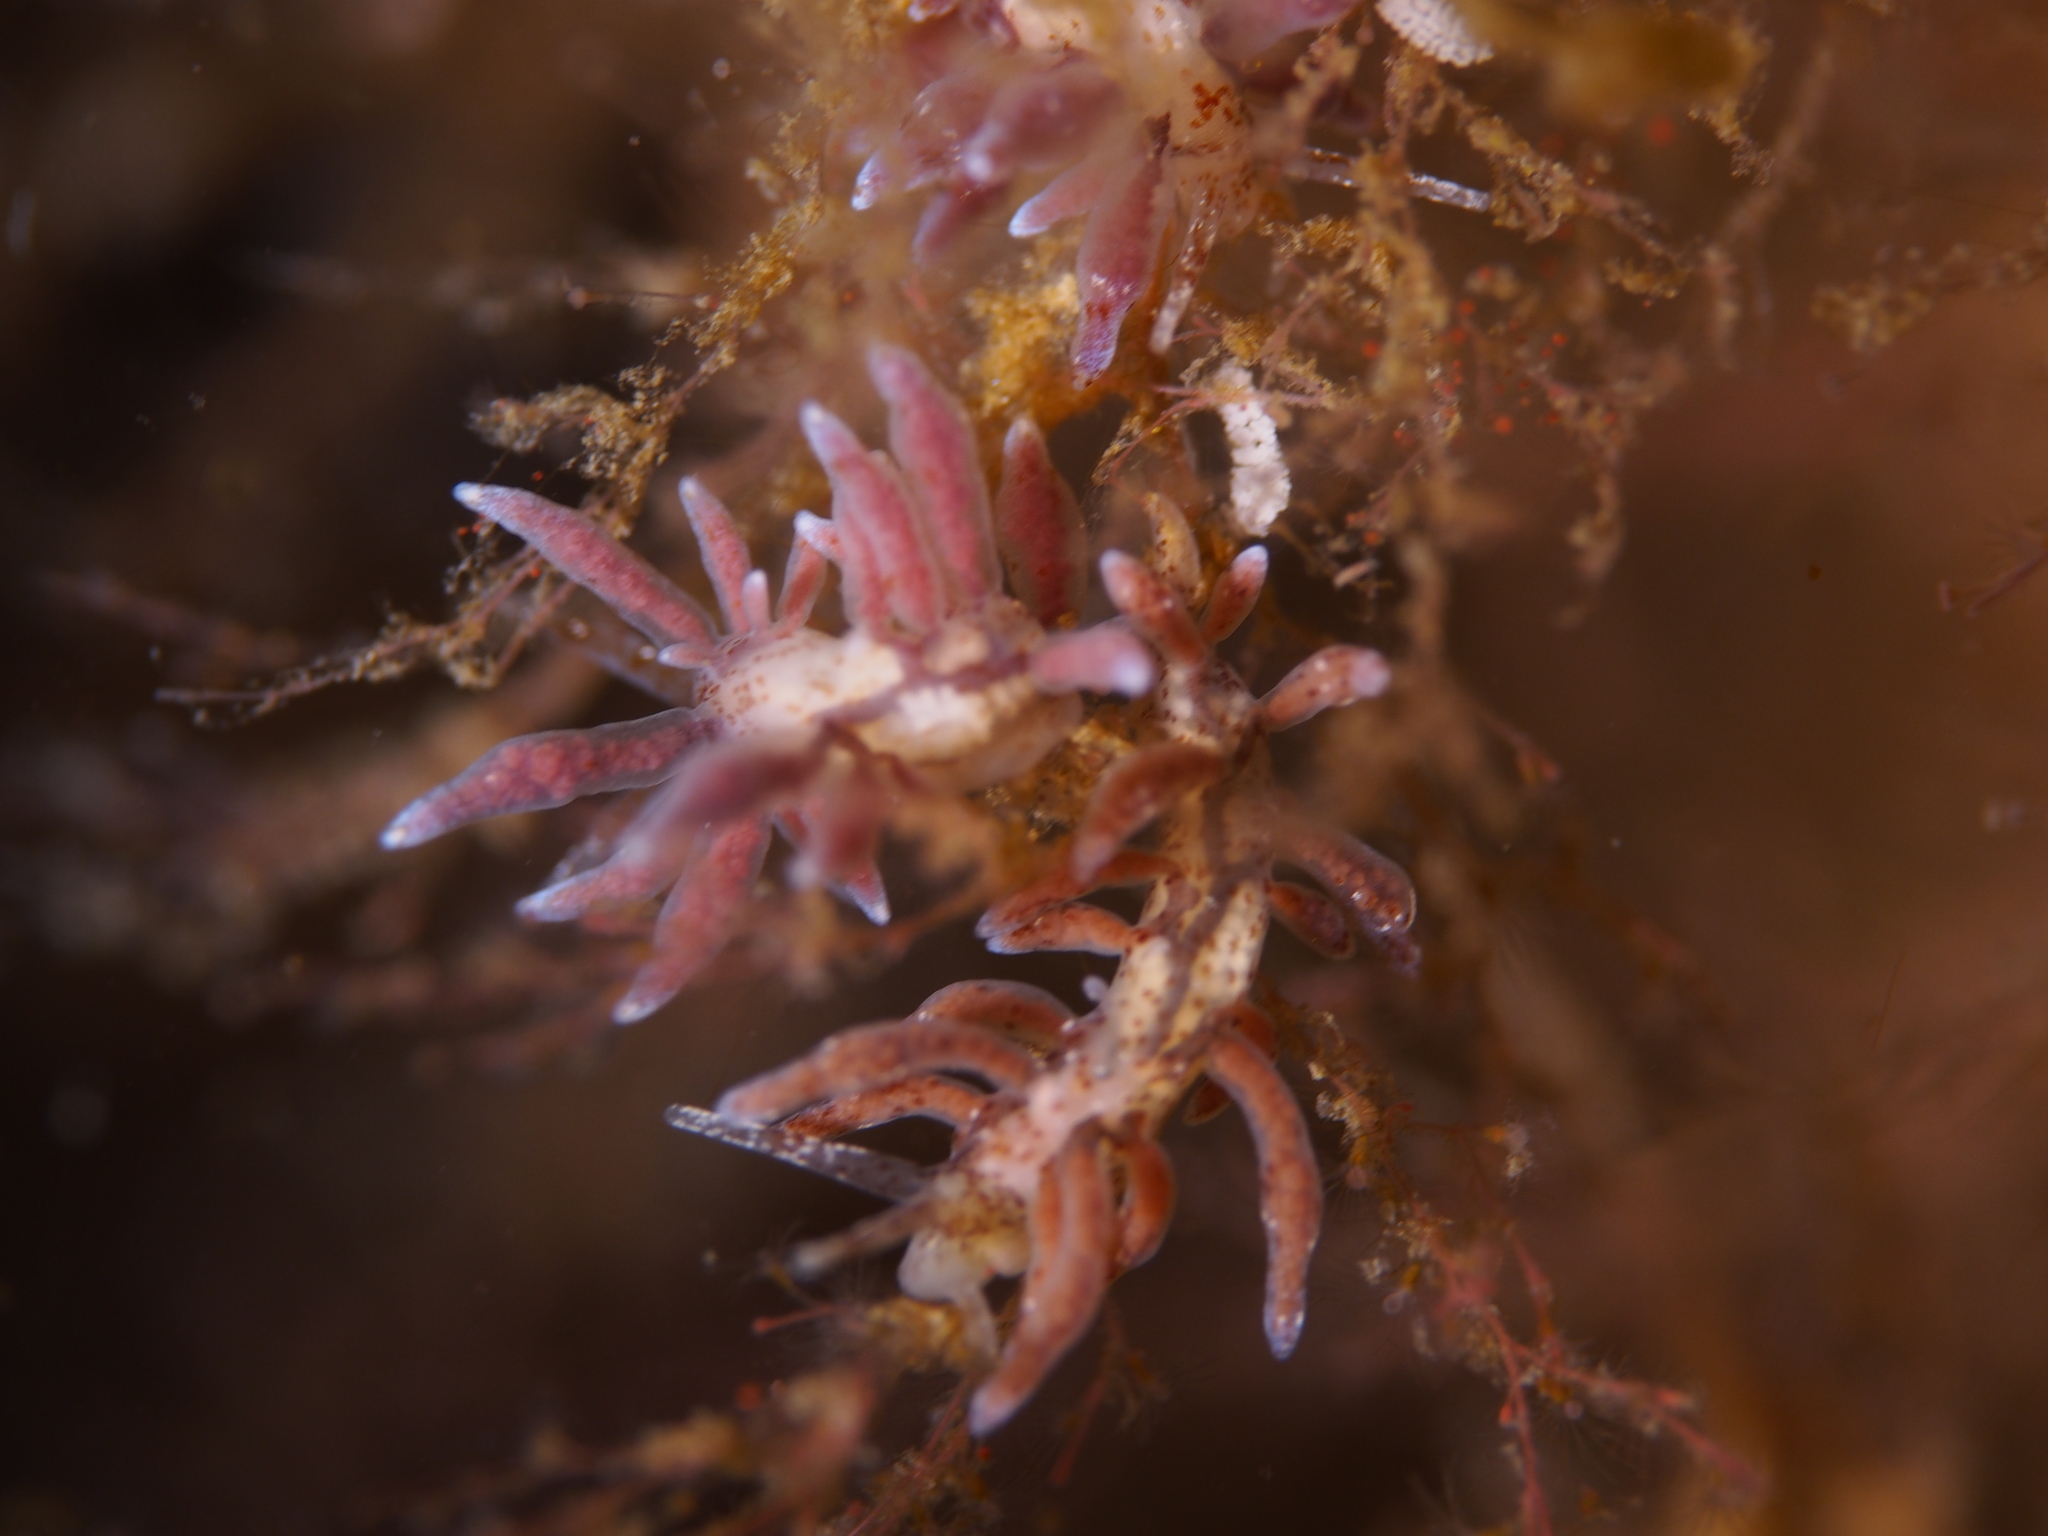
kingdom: Animalia
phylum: Mollusca
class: Gastropoda
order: Nudibranchia
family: Eubranchidae
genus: Eubranchus
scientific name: Eubranchus rupium
